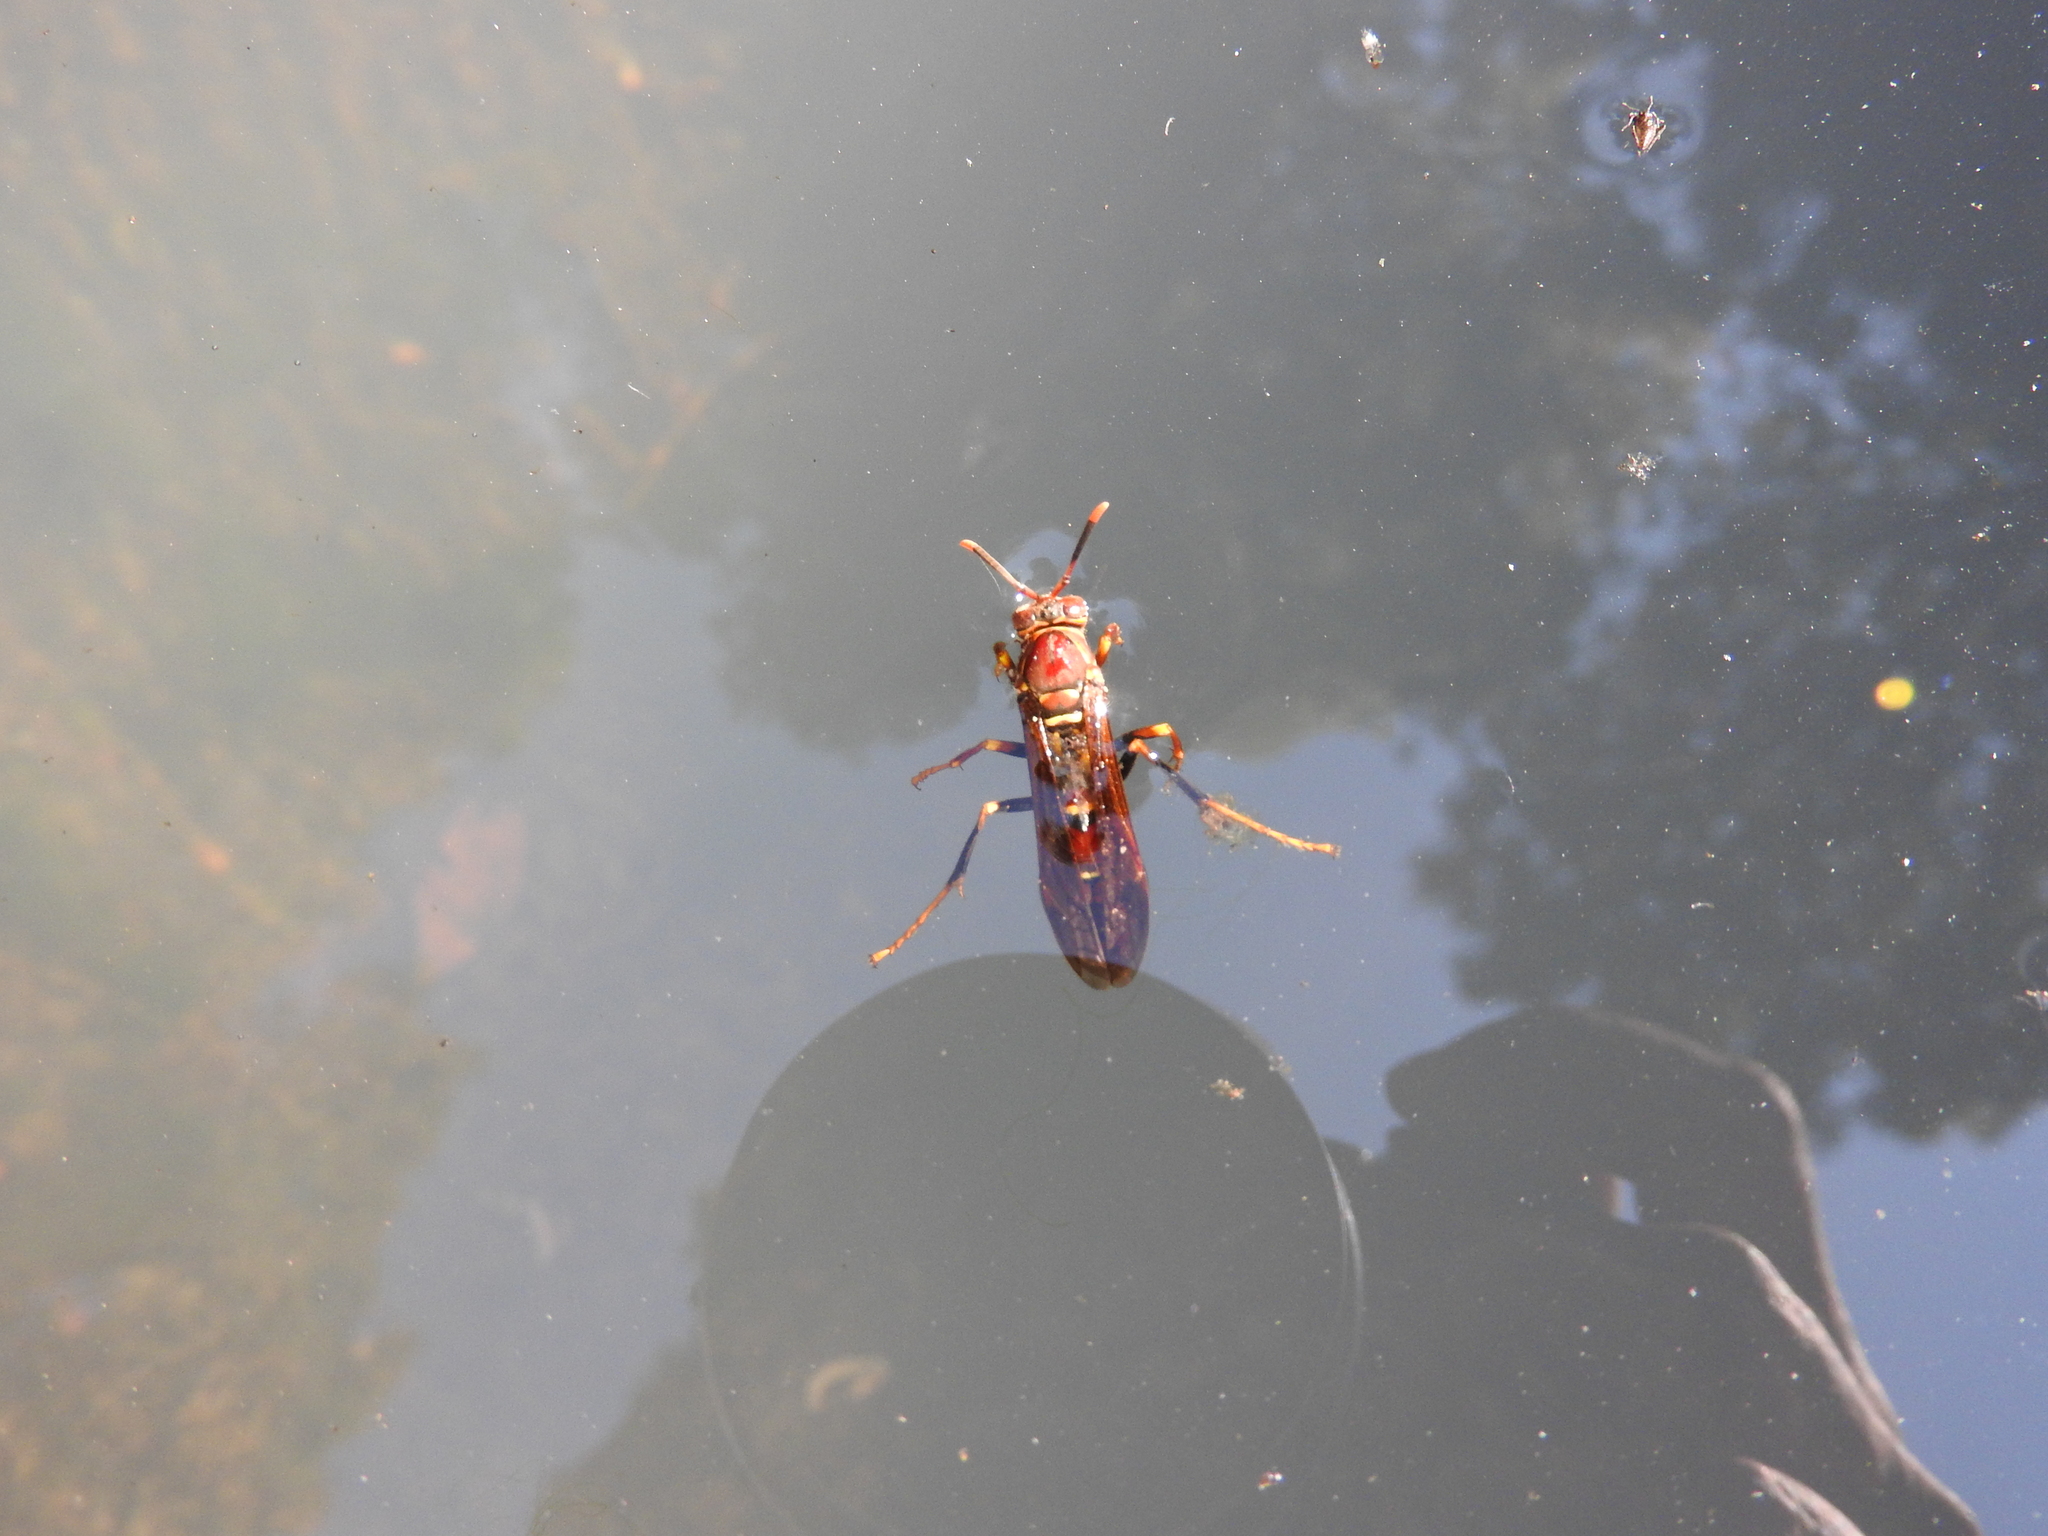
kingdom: Animalia
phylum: Arthropoda
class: Insecta
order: Hymenoptera
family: Eumenidae
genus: Polistes
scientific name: Polistes instabilis
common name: Unstable paper wasp
